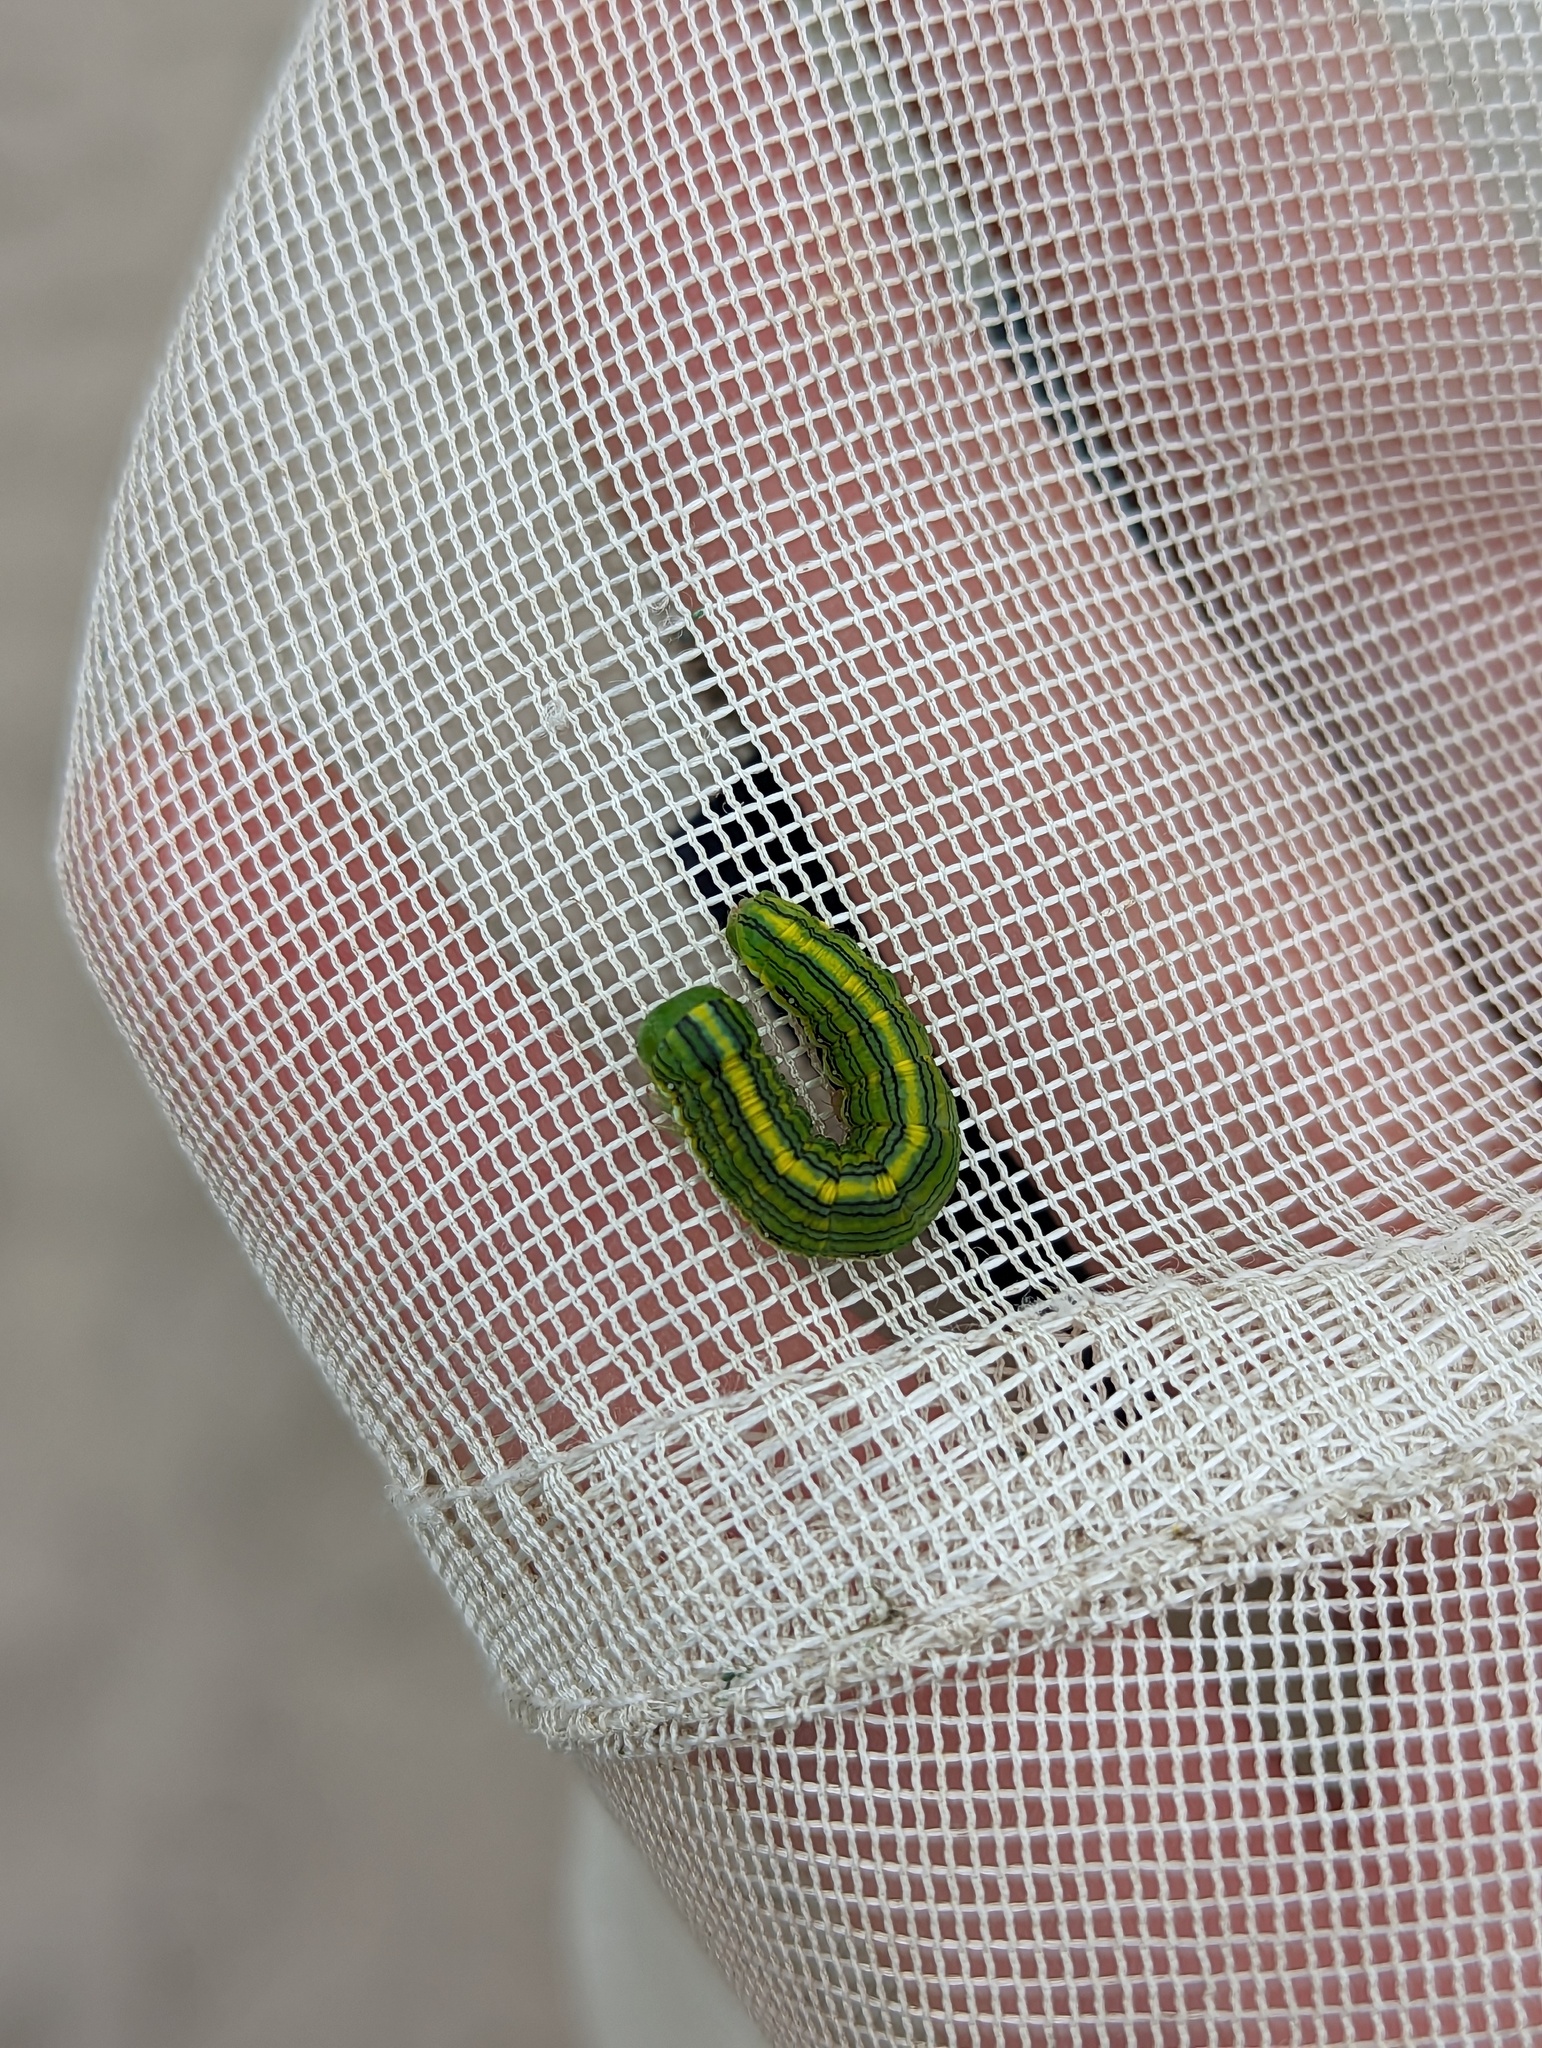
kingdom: Animalia
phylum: Arthropoda
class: Insecta
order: Lepidoptera
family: Noctuidae
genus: Cucullia
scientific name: Cucullia asteroides
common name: Asteroid moth
